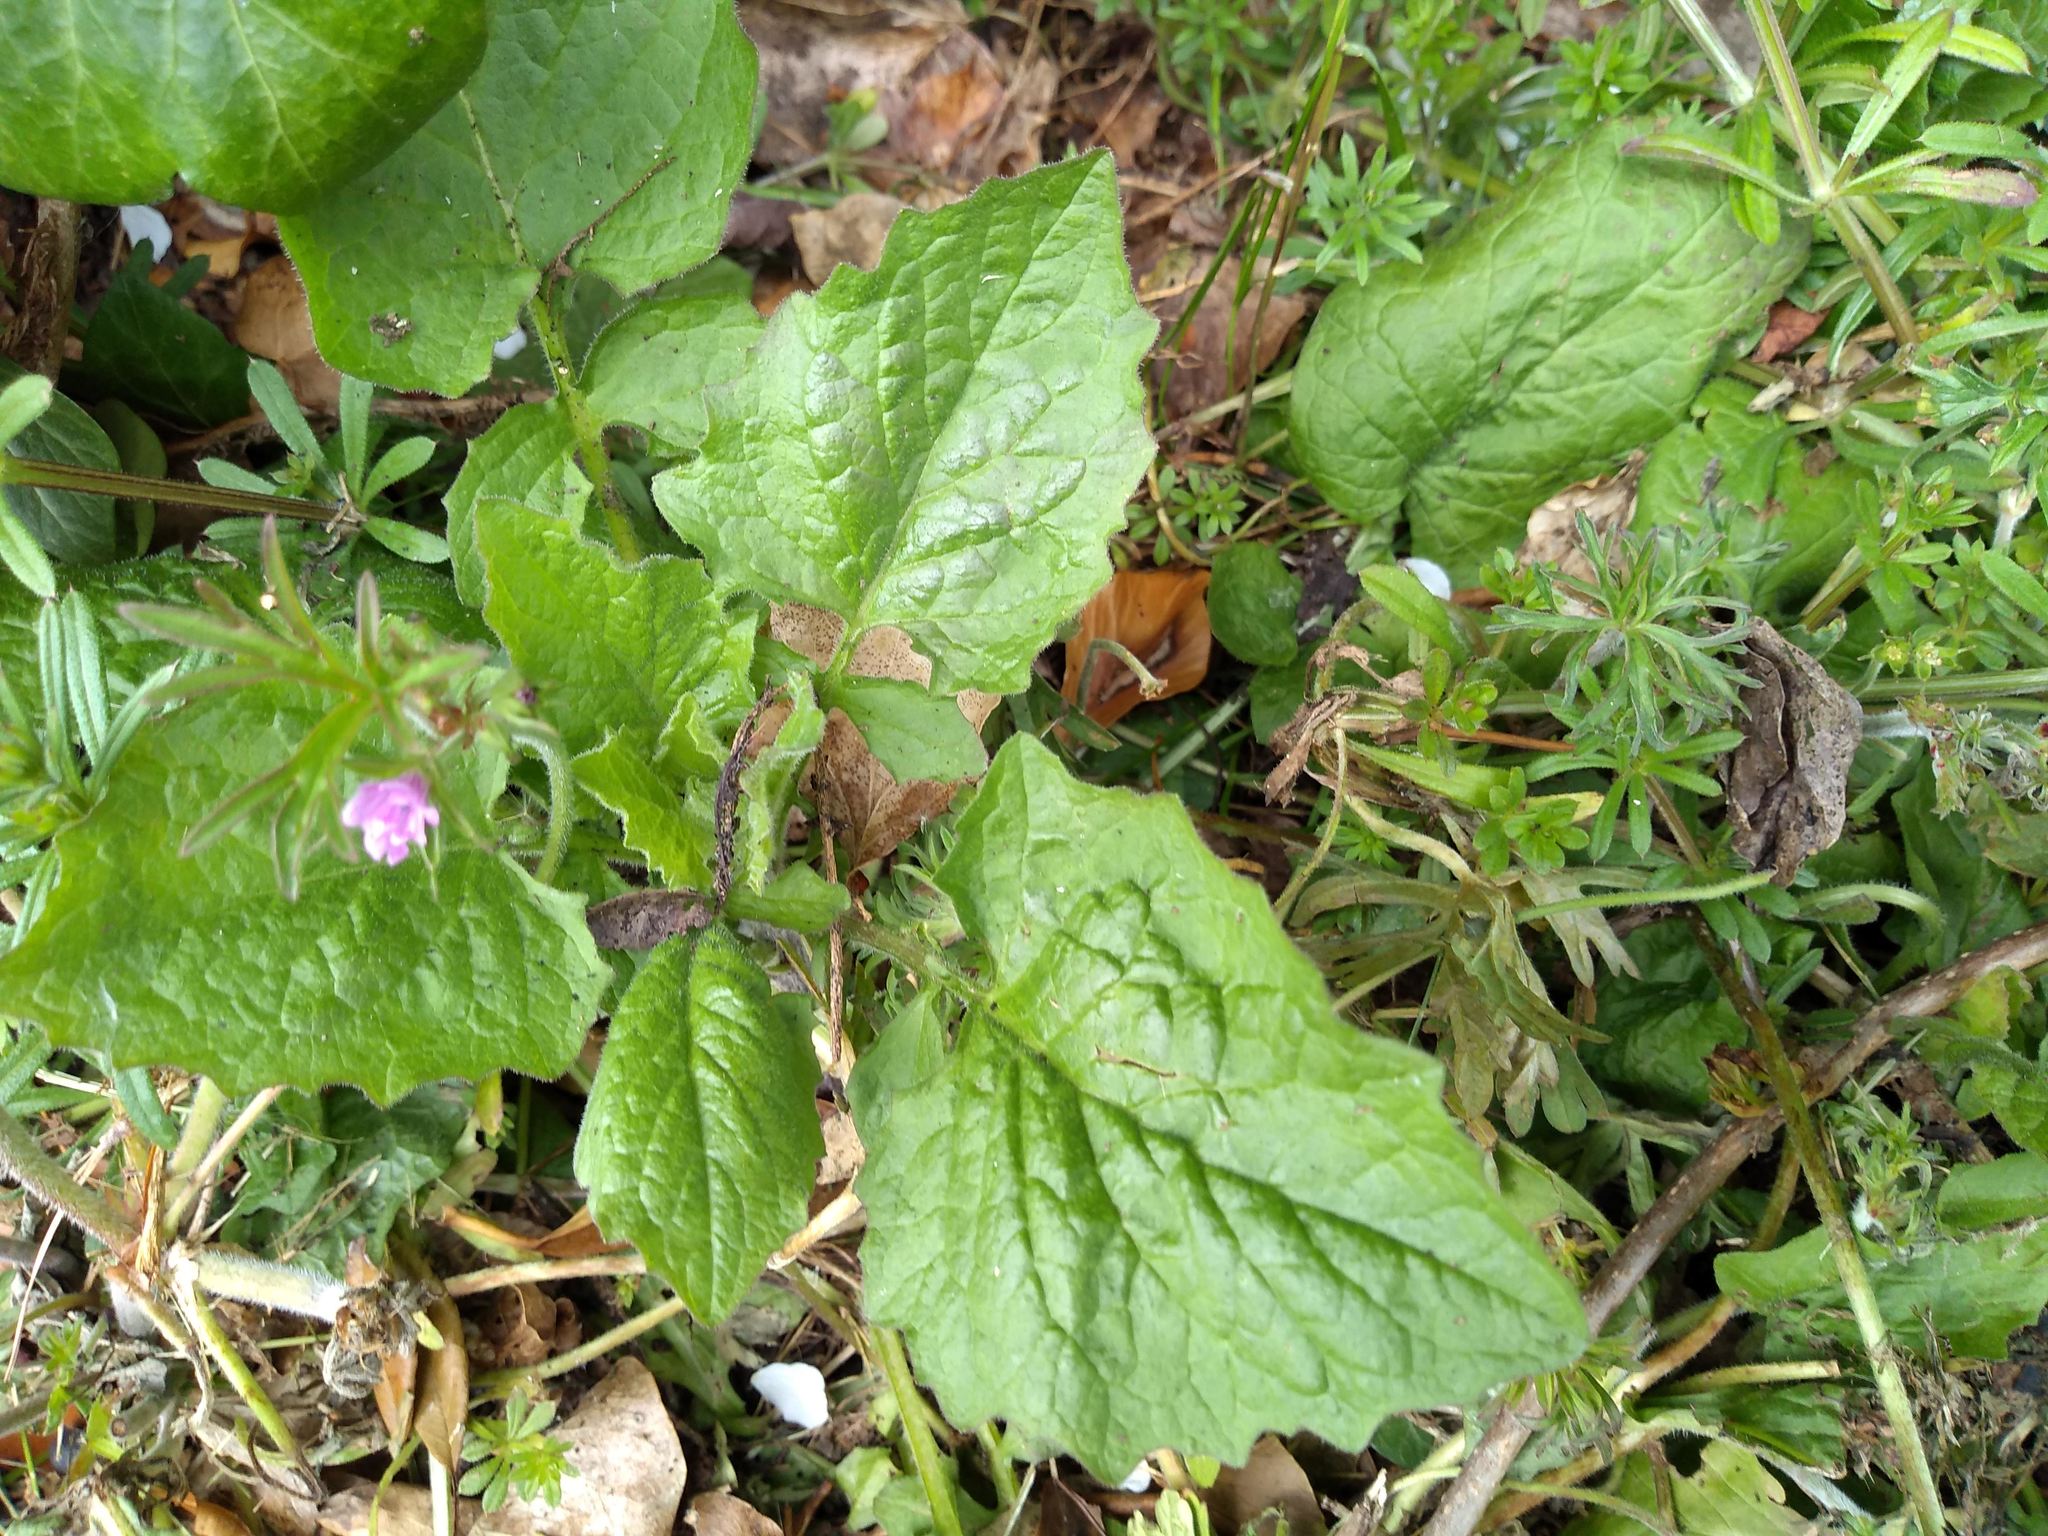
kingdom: Plantae
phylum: Tracheophyta
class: Magnoliopsida
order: Asterales
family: Asteraceae
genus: Lapsana
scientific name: Lapsana communis
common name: Nipplewort
